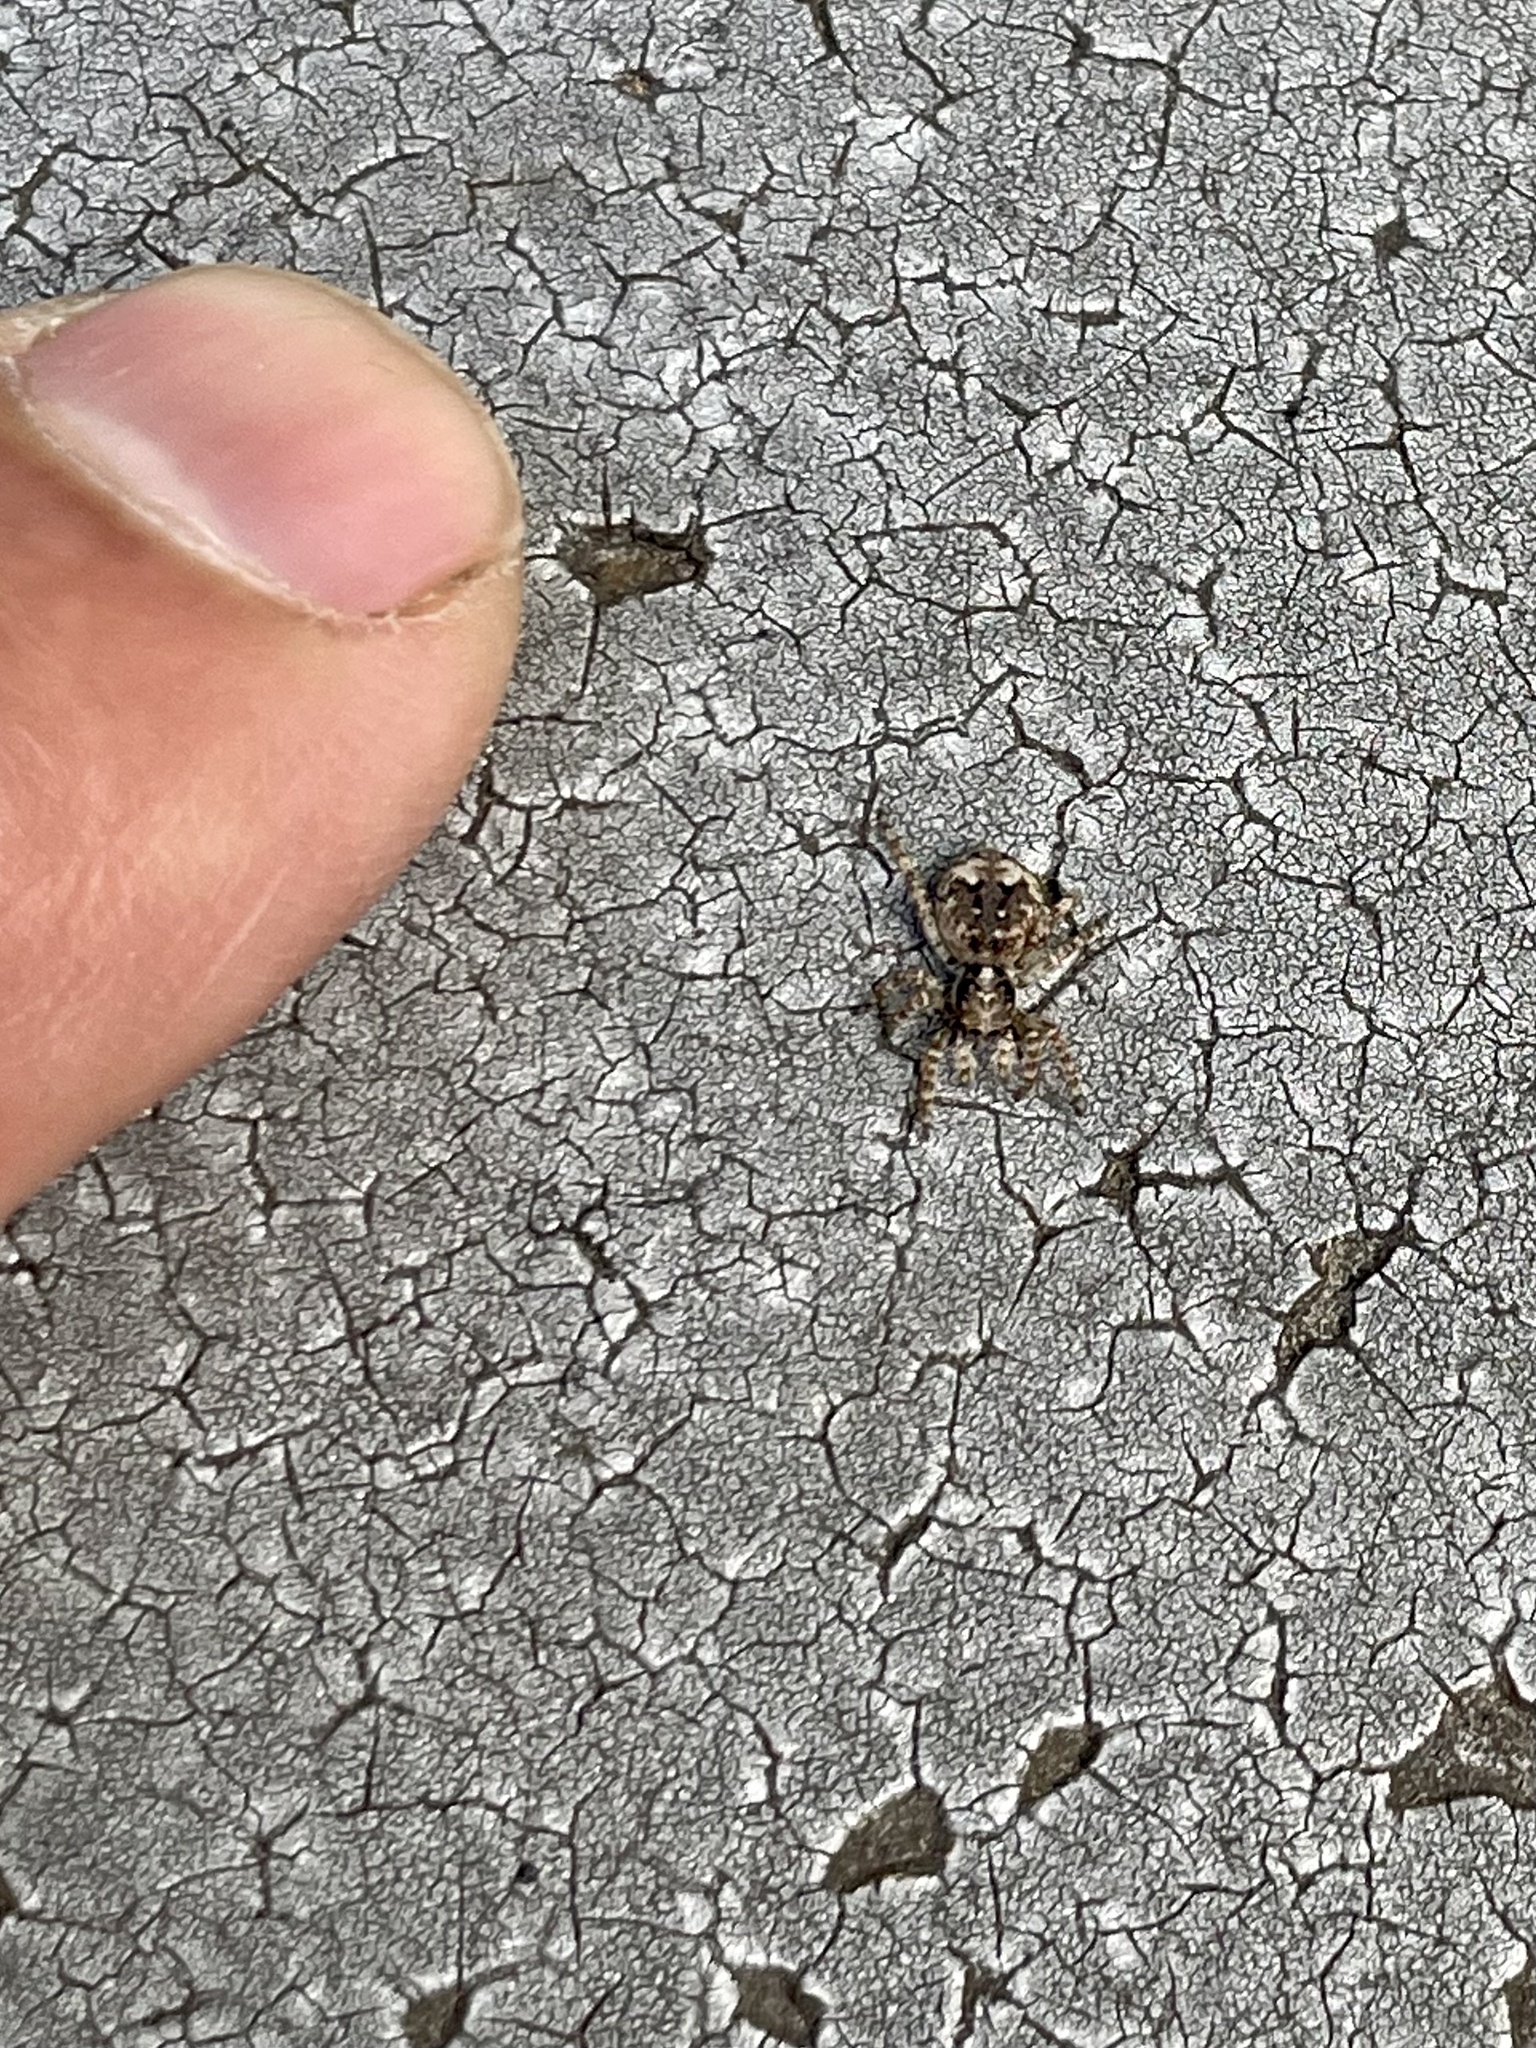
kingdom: Animalia
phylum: Arthropoda
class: Arachnida
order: Araneae
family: Salticidae
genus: Attulus
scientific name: Attulus fasciger
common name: Asiatic wall jumping spider
